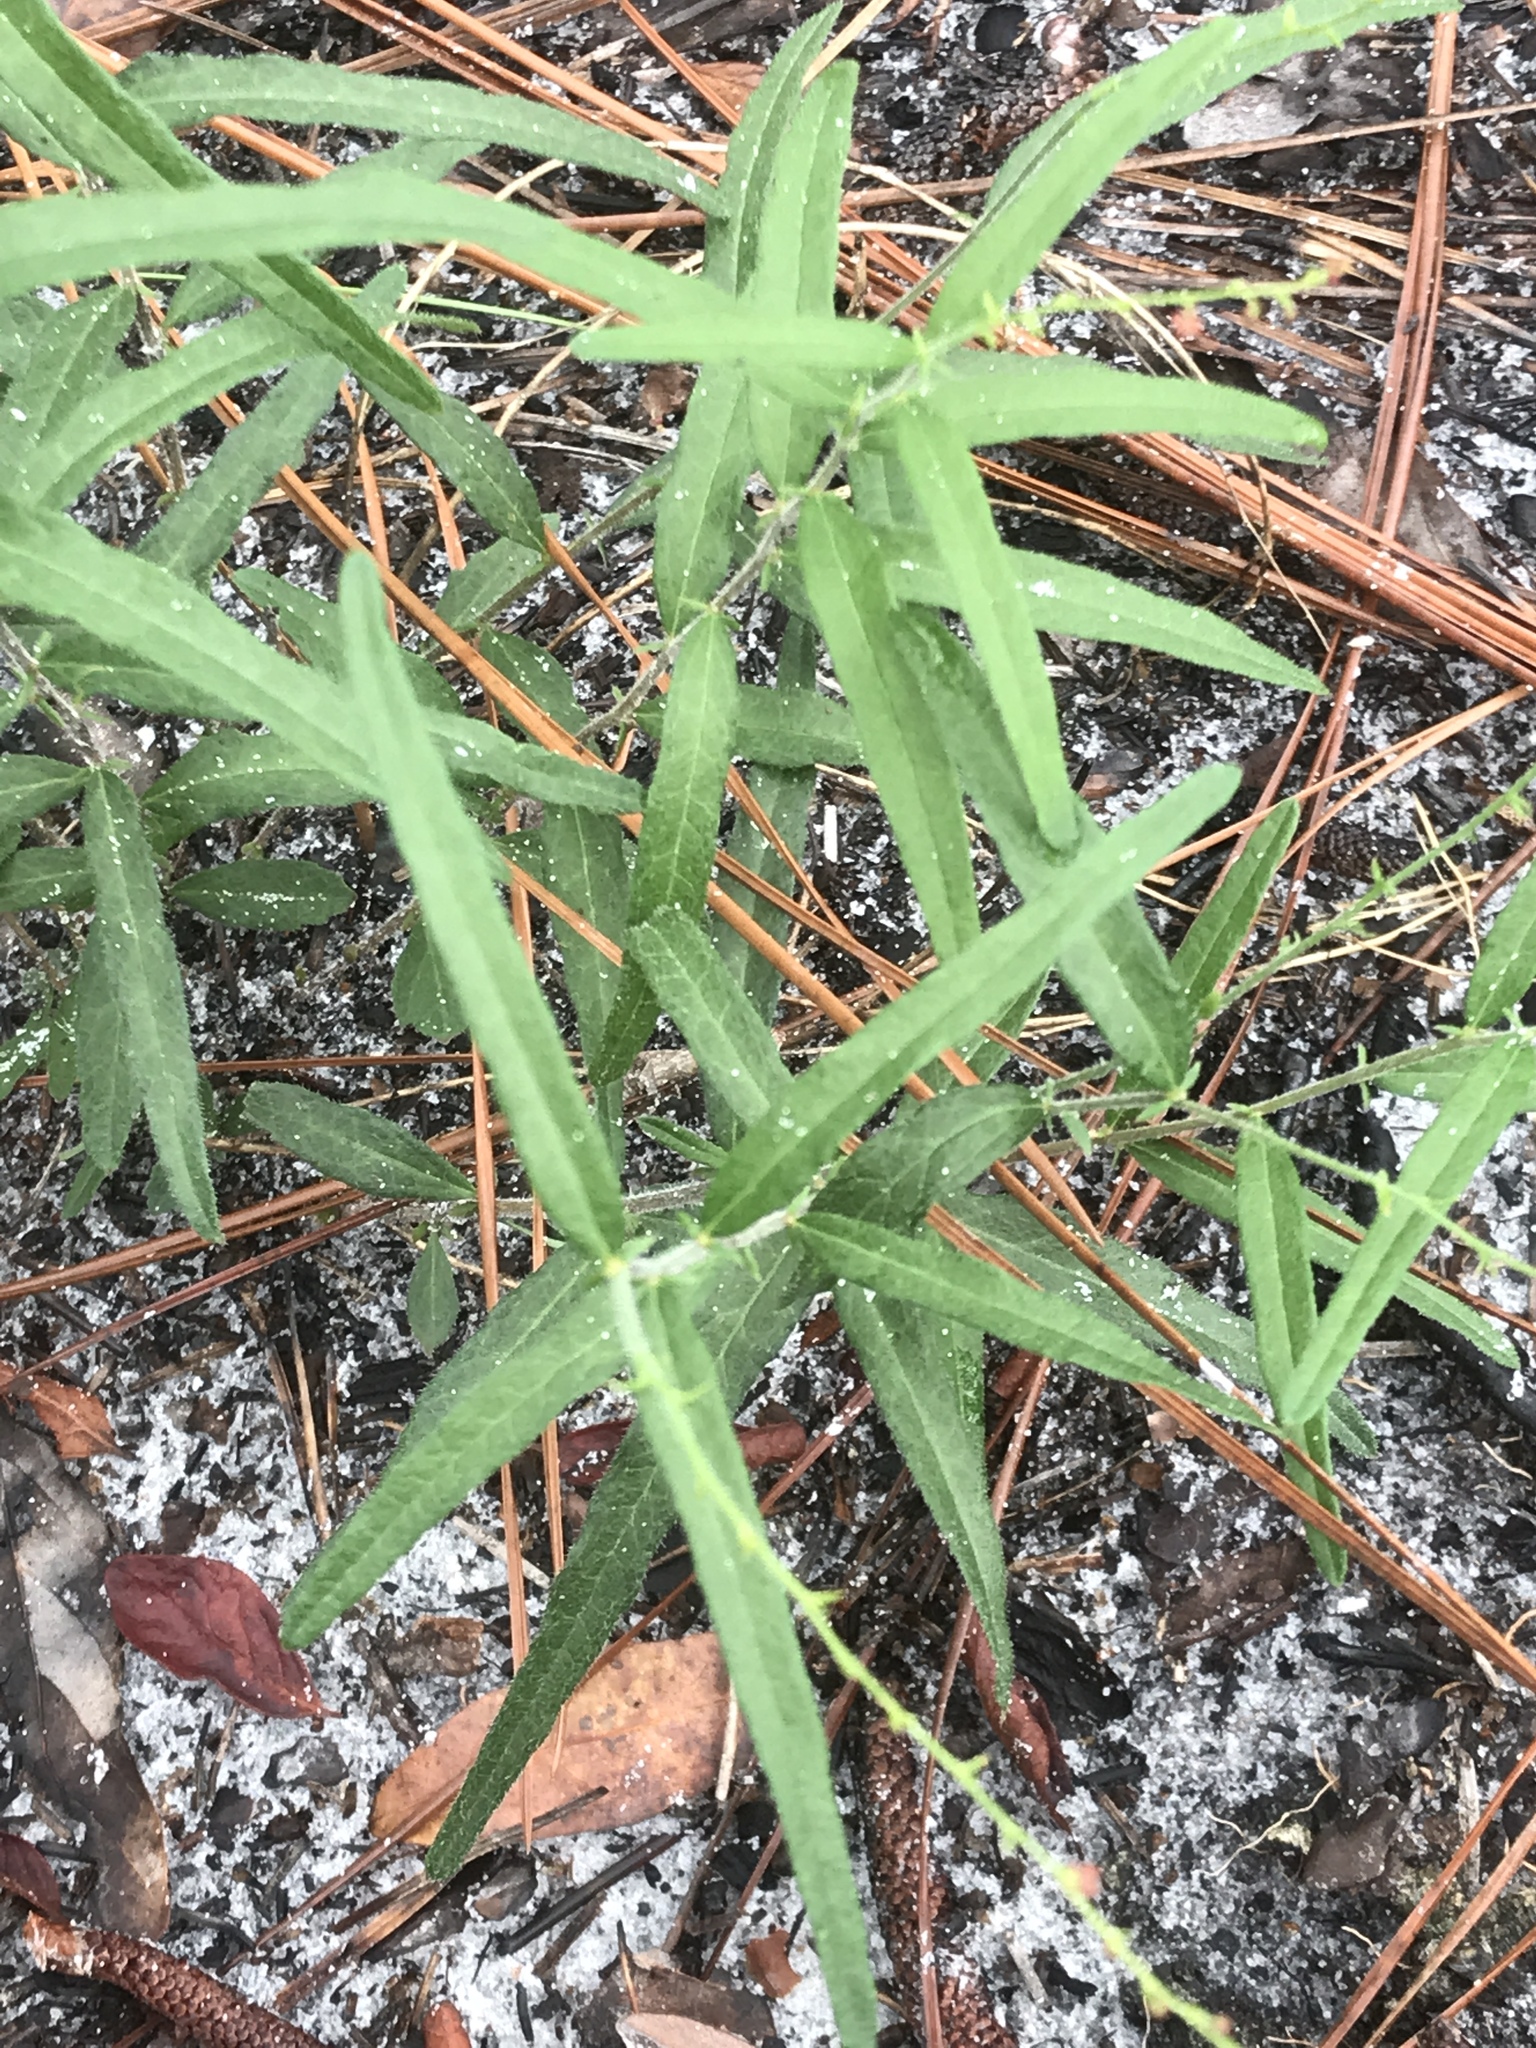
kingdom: Plantae
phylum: Tracheophyta
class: Magnoliopsida
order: Malpighiales
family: Euphorbiaceae
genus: Tragia
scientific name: Tragia urens
